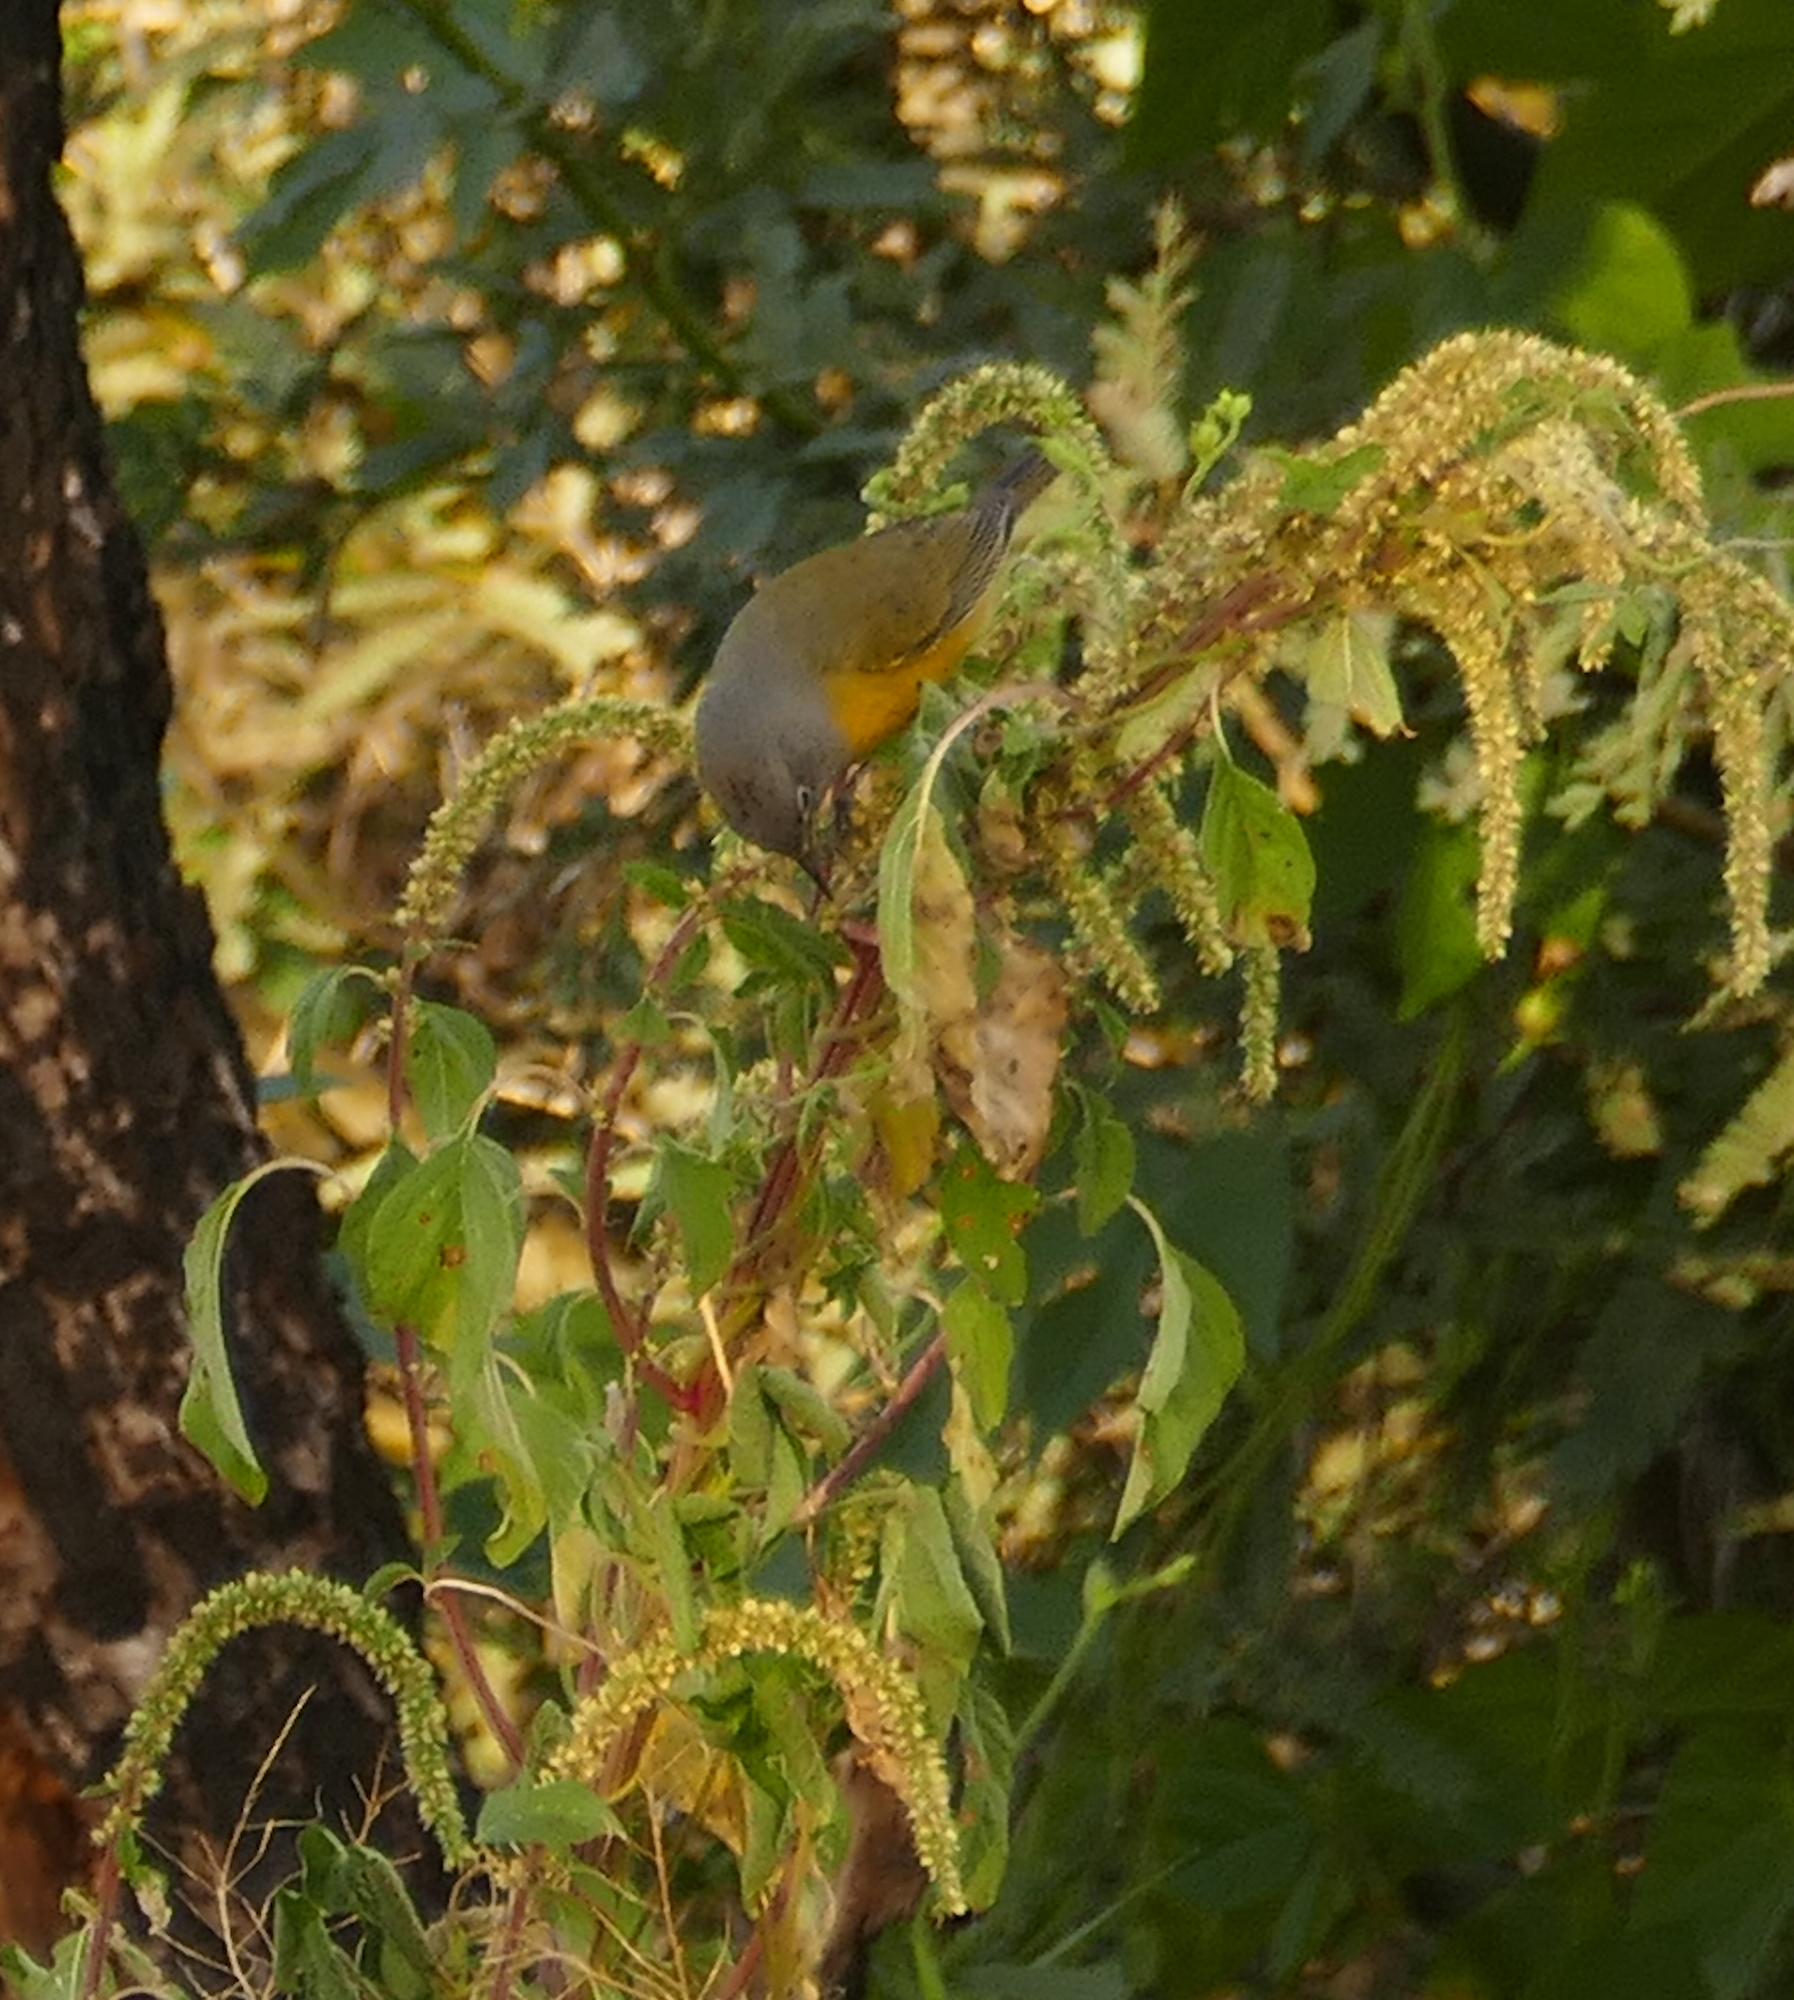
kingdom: Animalia
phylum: Chordata
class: Aves
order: Passeriformes
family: Parulidae
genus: Leiothlypis
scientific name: Leiothlypis ruficapilla
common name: Nashville warbler
